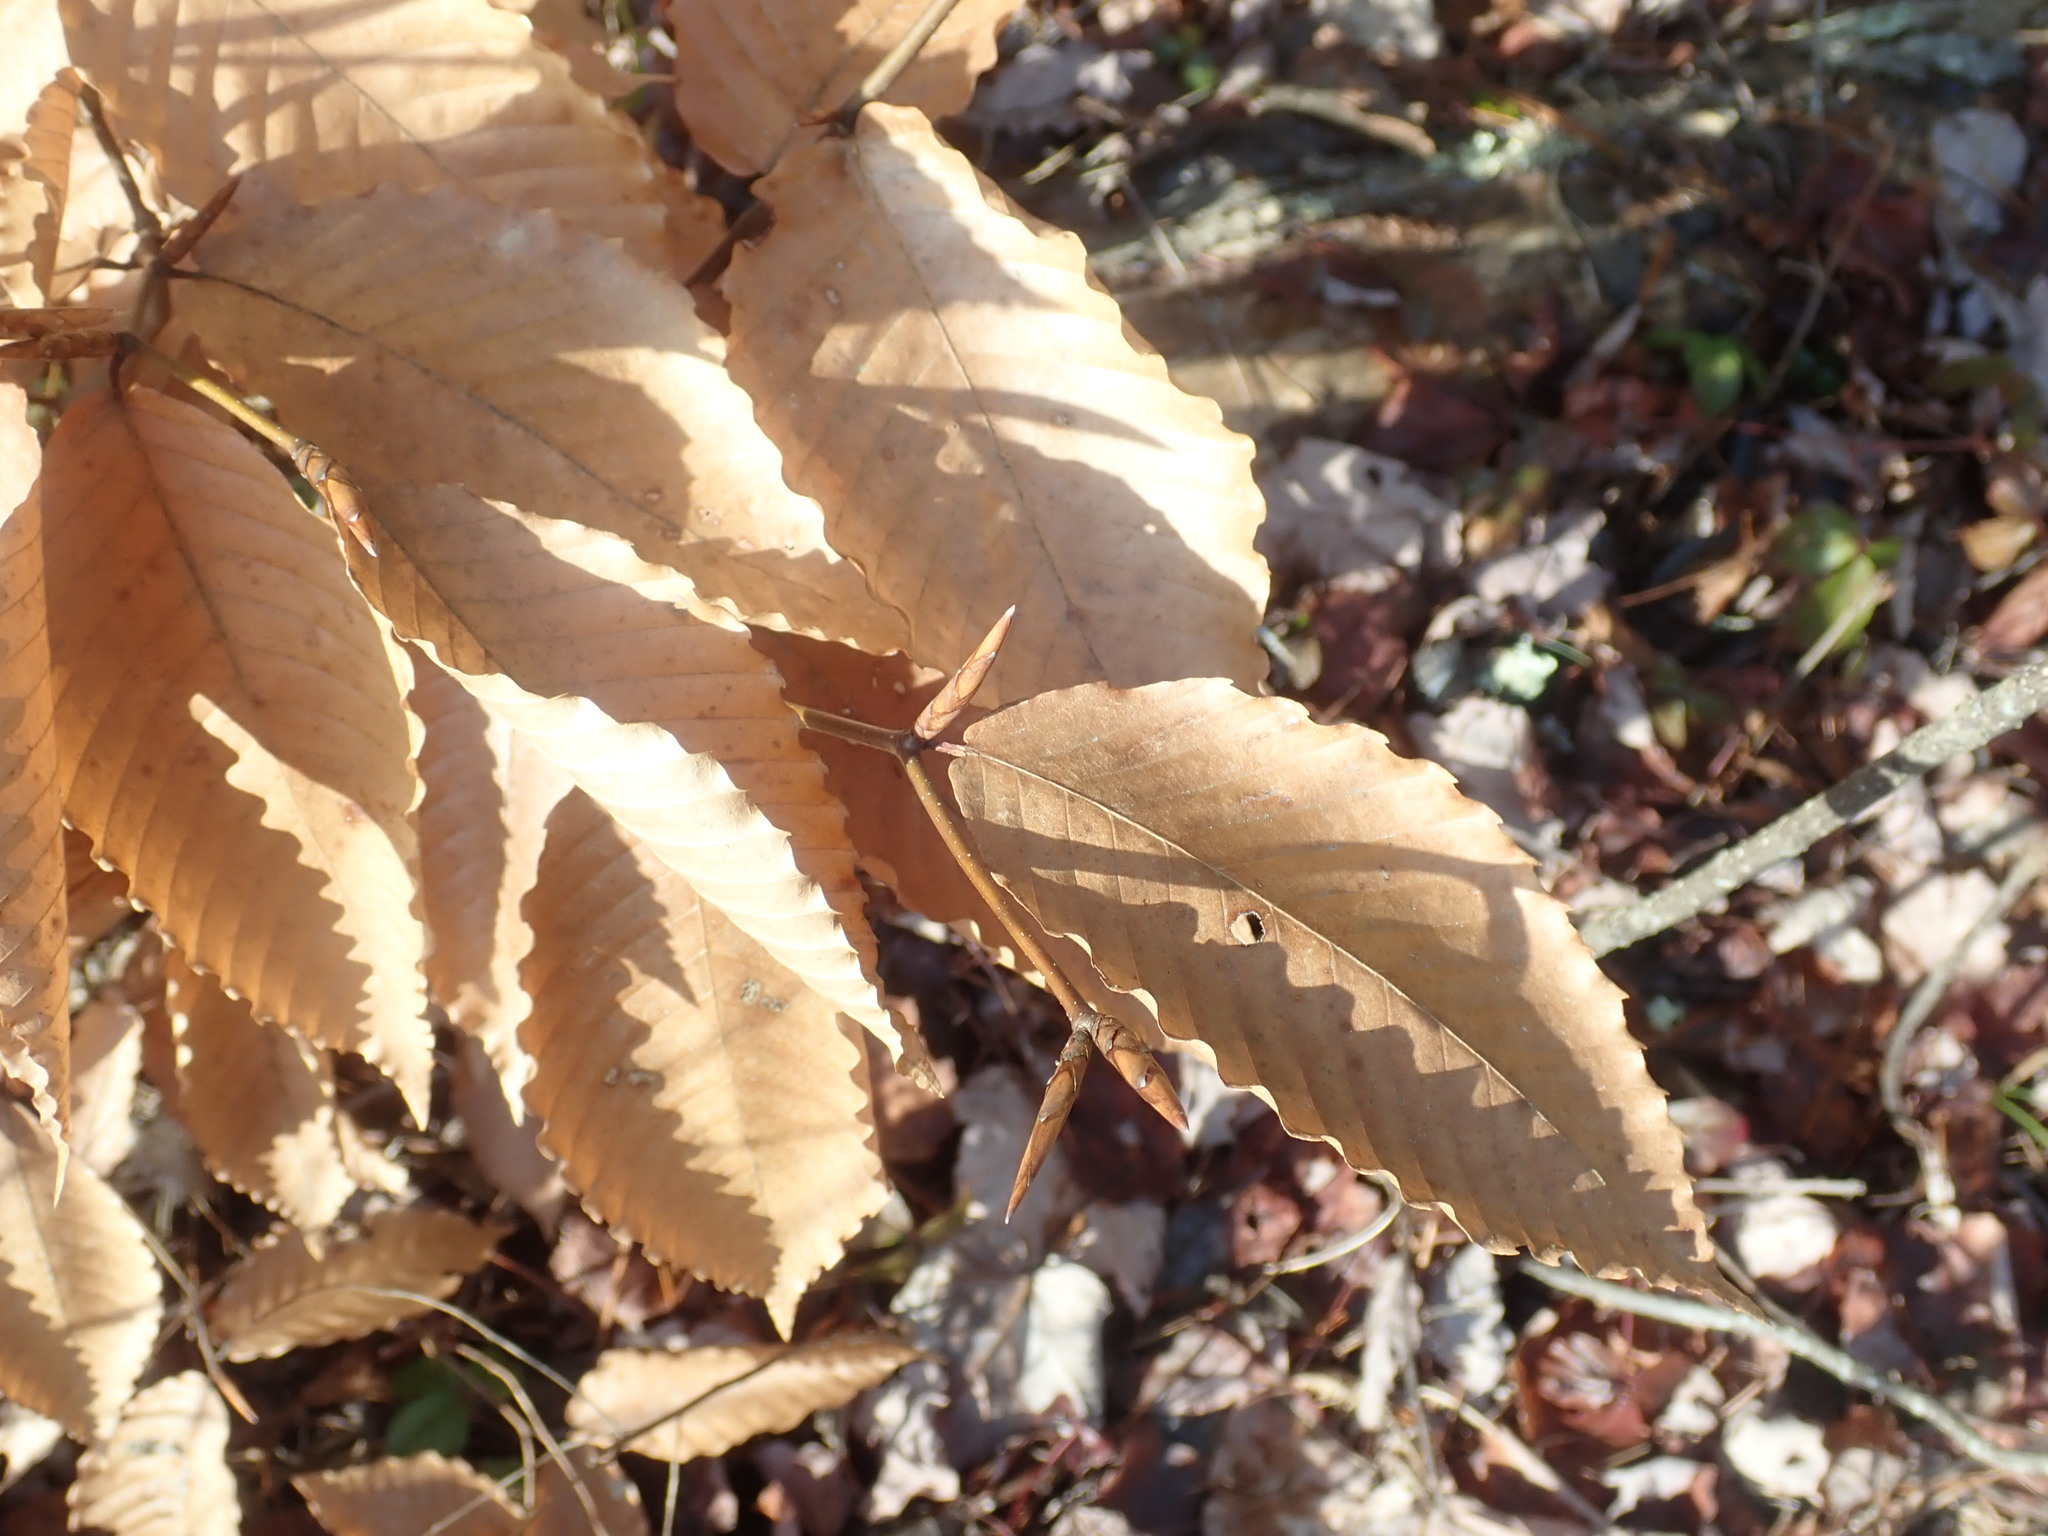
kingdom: Plantae
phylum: Tracheophyta
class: Magnoliopsida
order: Fagales
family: Fagaceae
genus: Fagus
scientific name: Fagus grandifolia
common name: American beech
